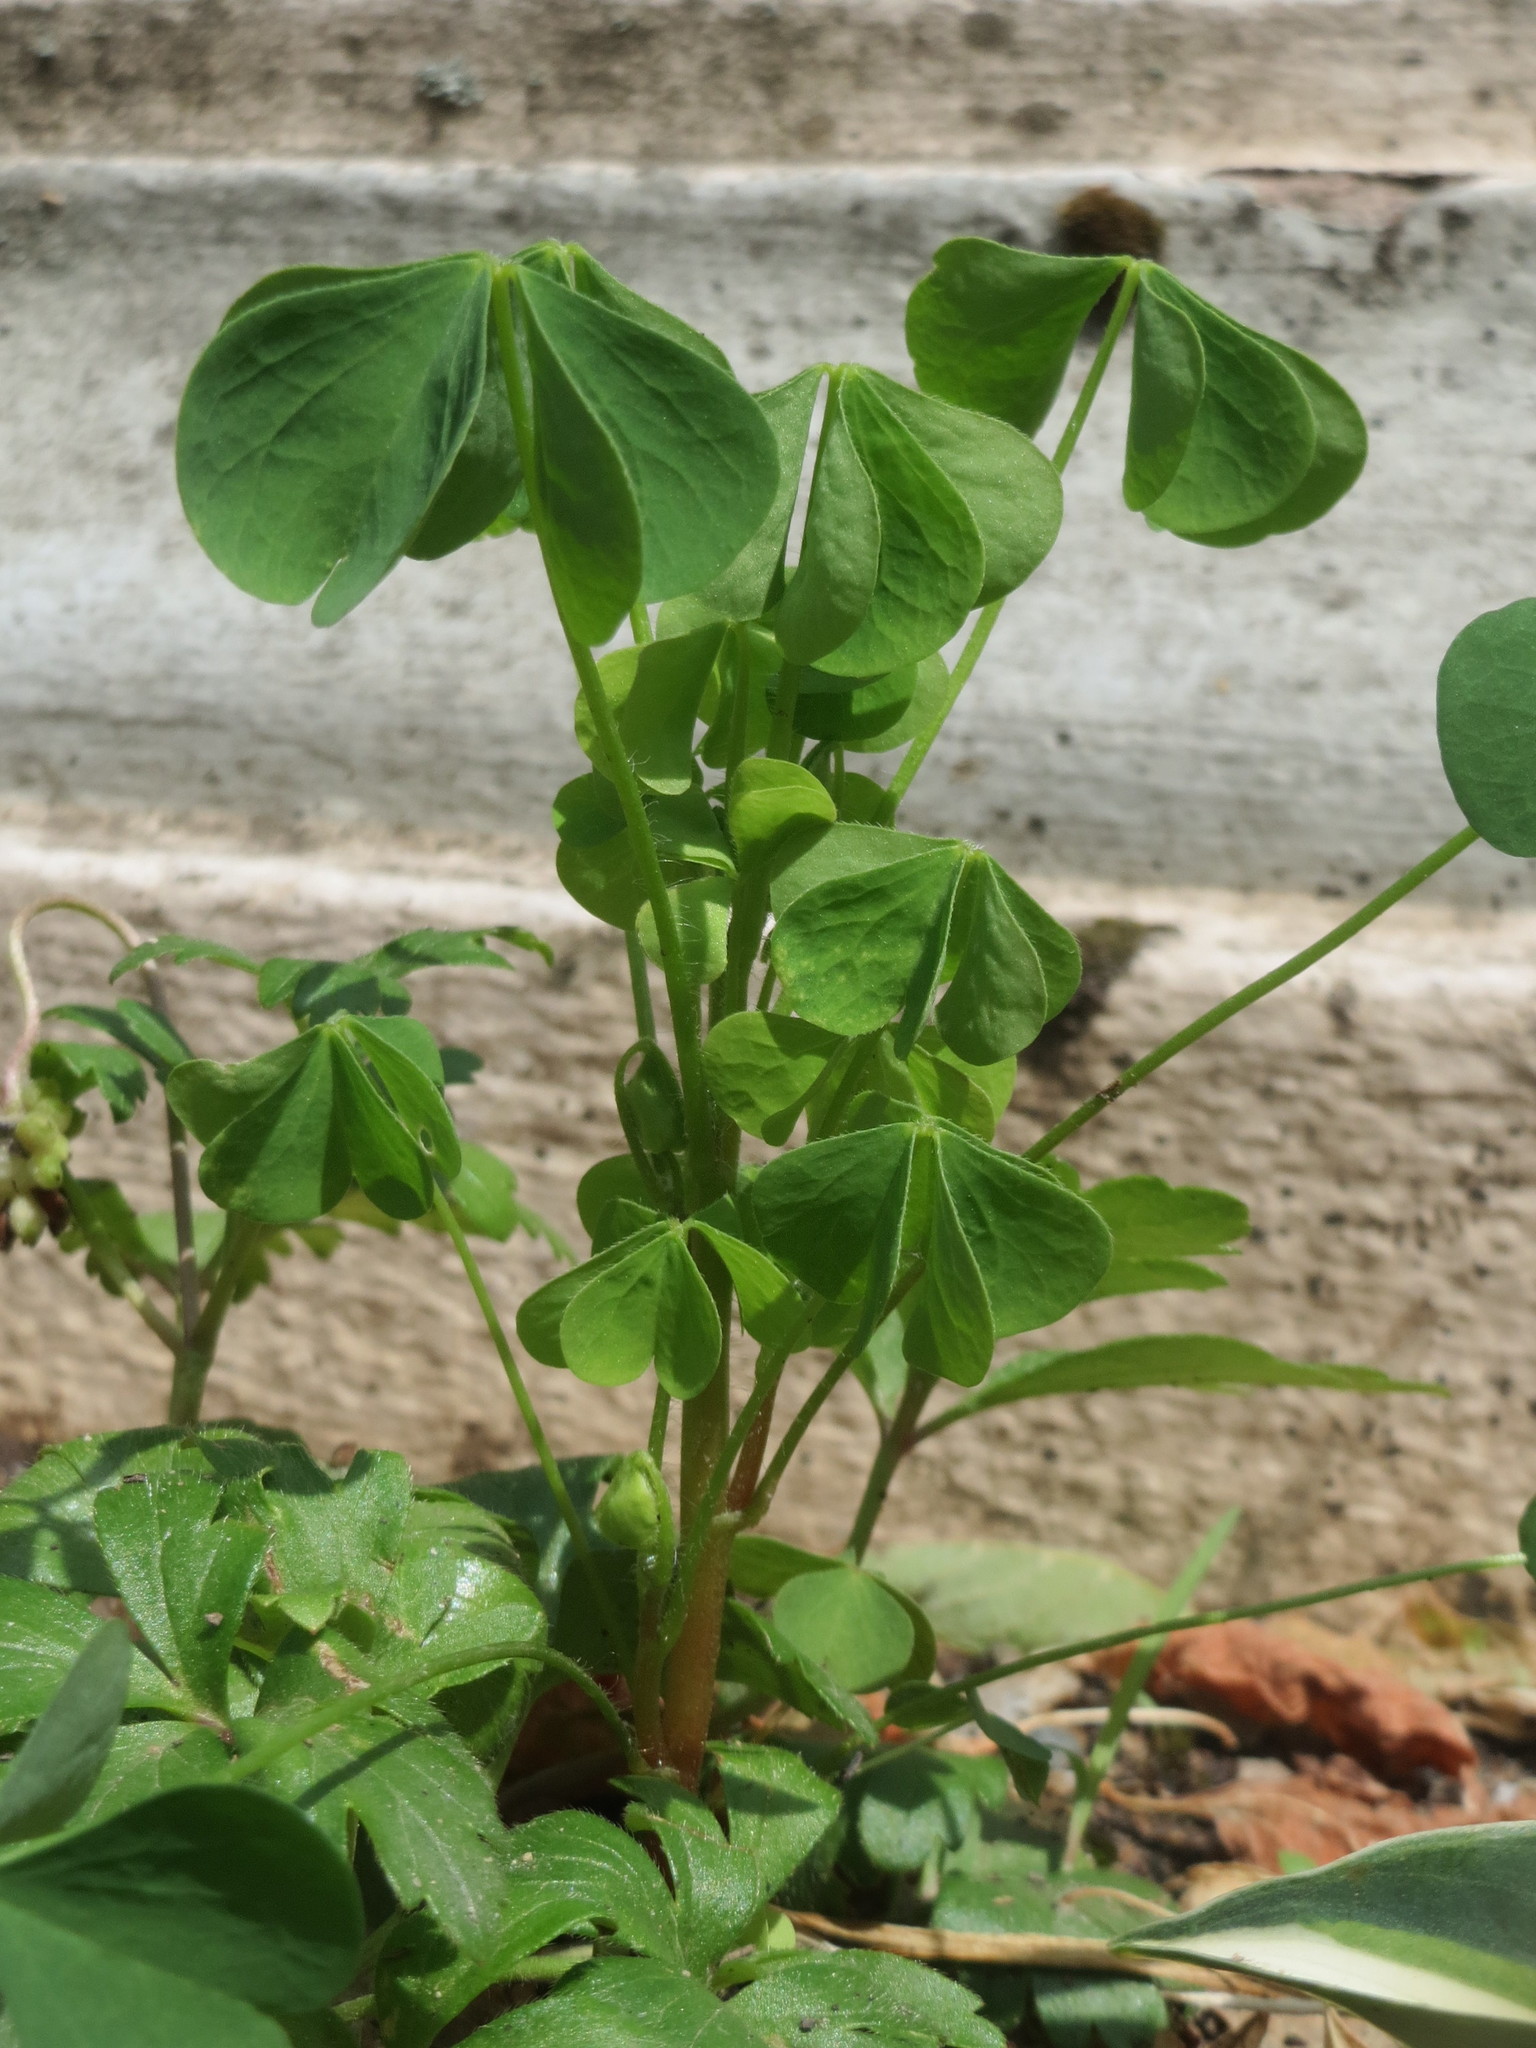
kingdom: Plantae
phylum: Tracheophyta
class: Magnoliopsida
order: Oxalidales
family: Oxalidaceae
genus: Oxalis
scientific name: Oxalis stricta
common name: Upright yellow-sorrel
